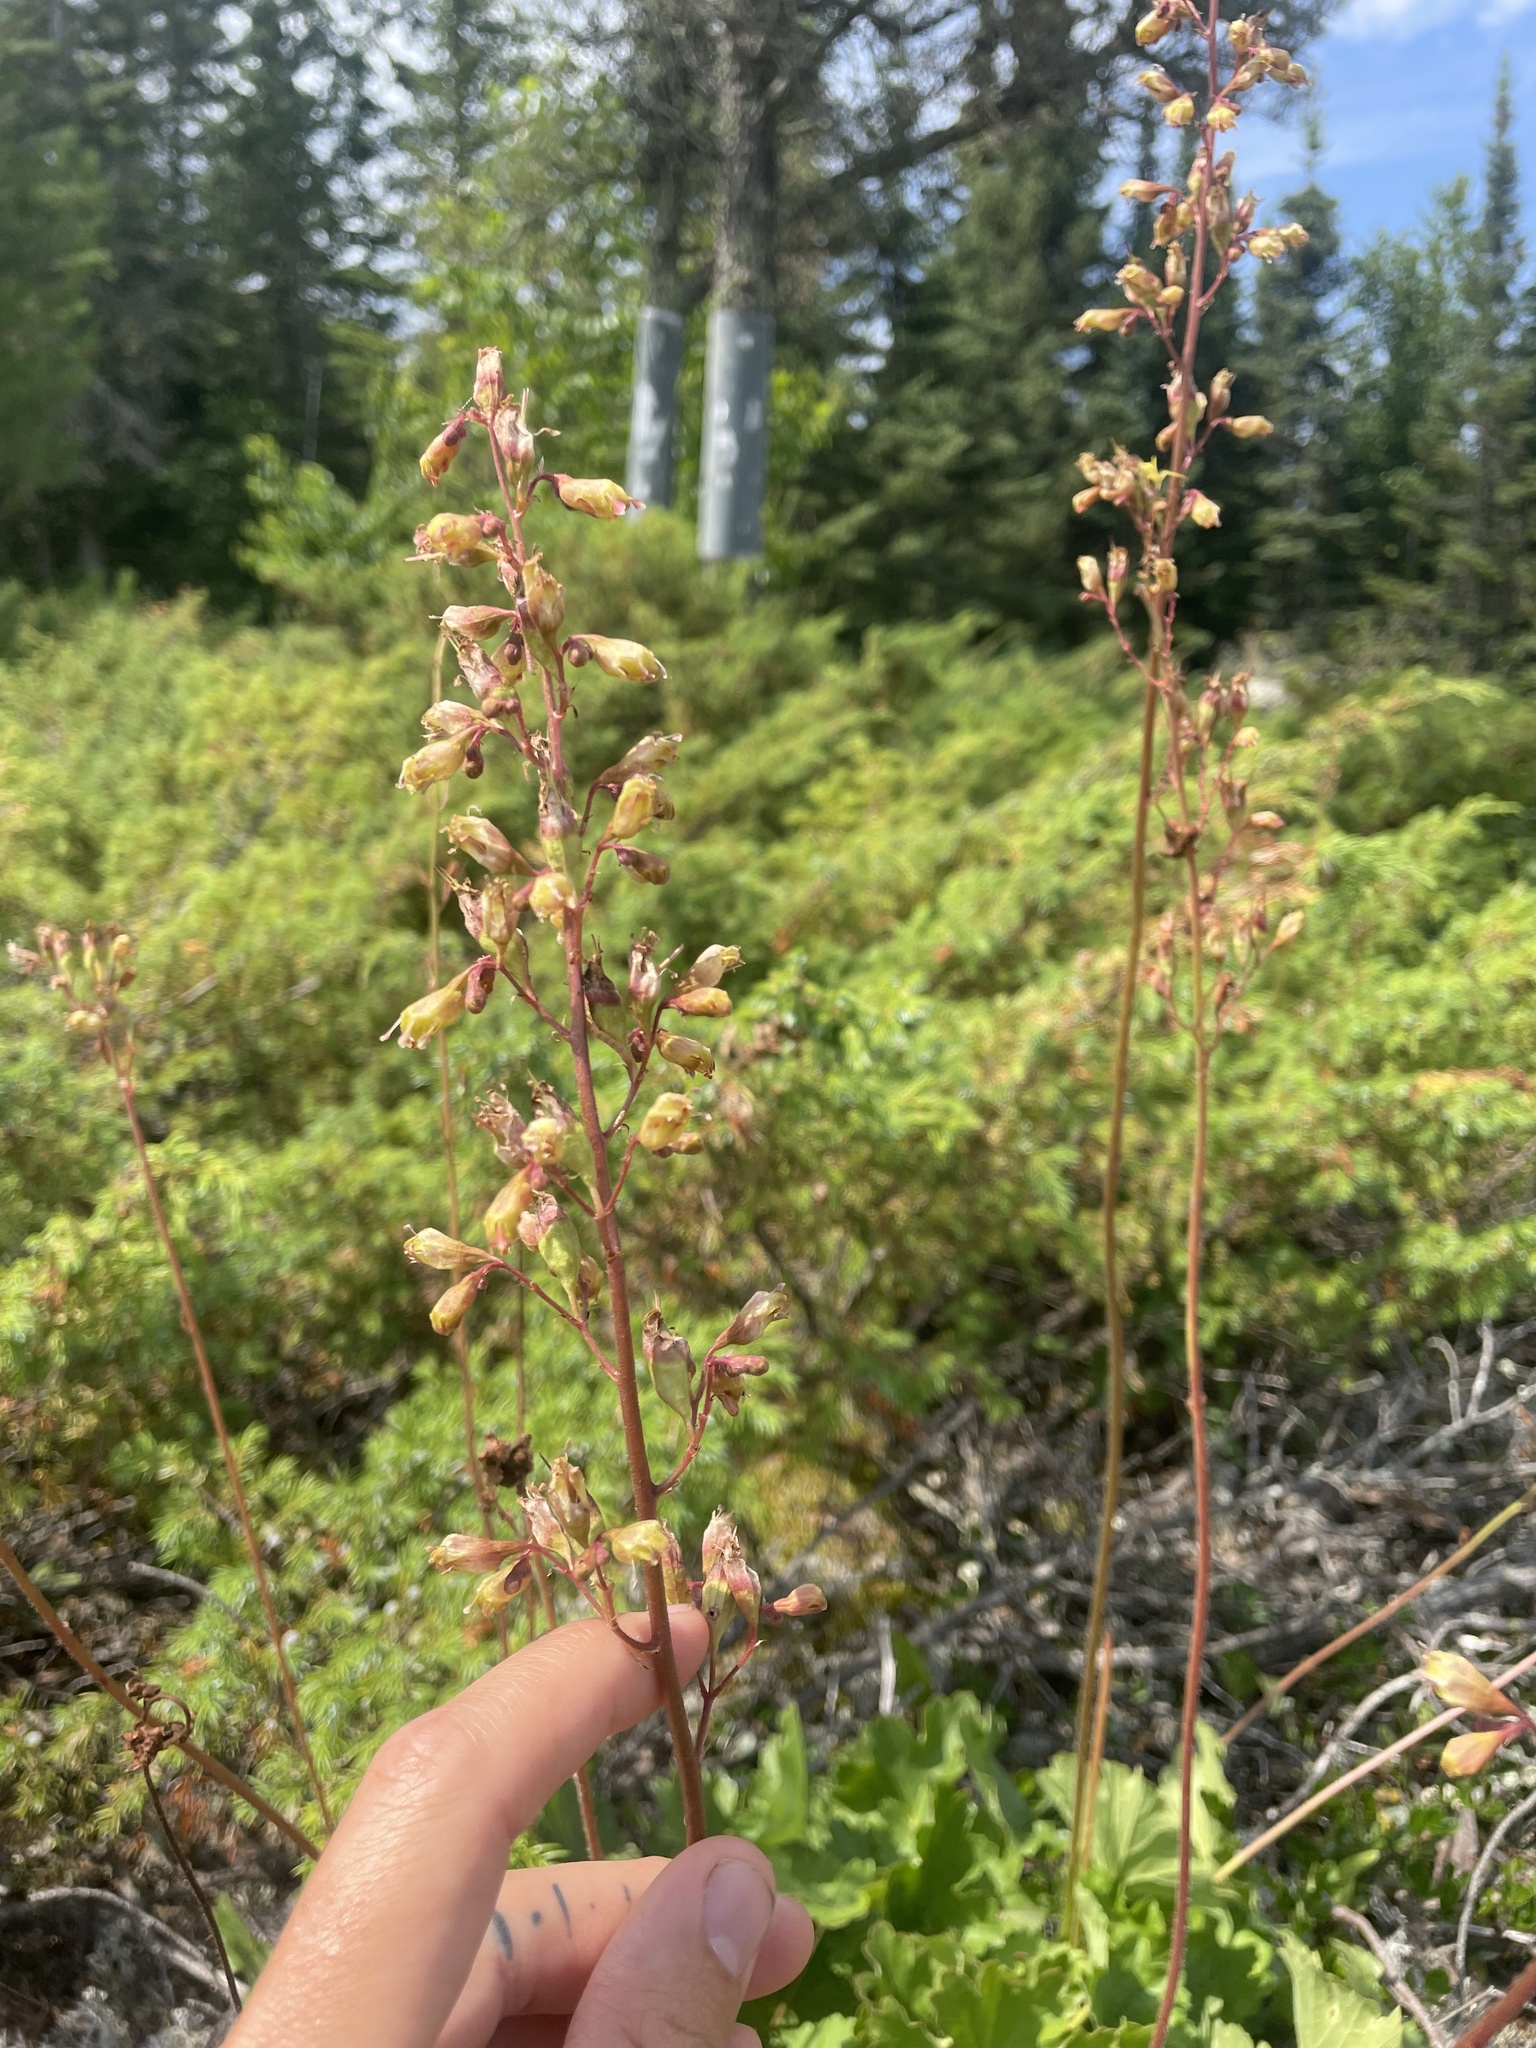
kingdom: Plantae
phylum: Tracheophyta
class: Magnoliopsida
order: Saxifragales
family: Saxifragaceae
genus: Heuchera
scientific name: Heuchera richardsonii
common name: Richardson's alumroot
